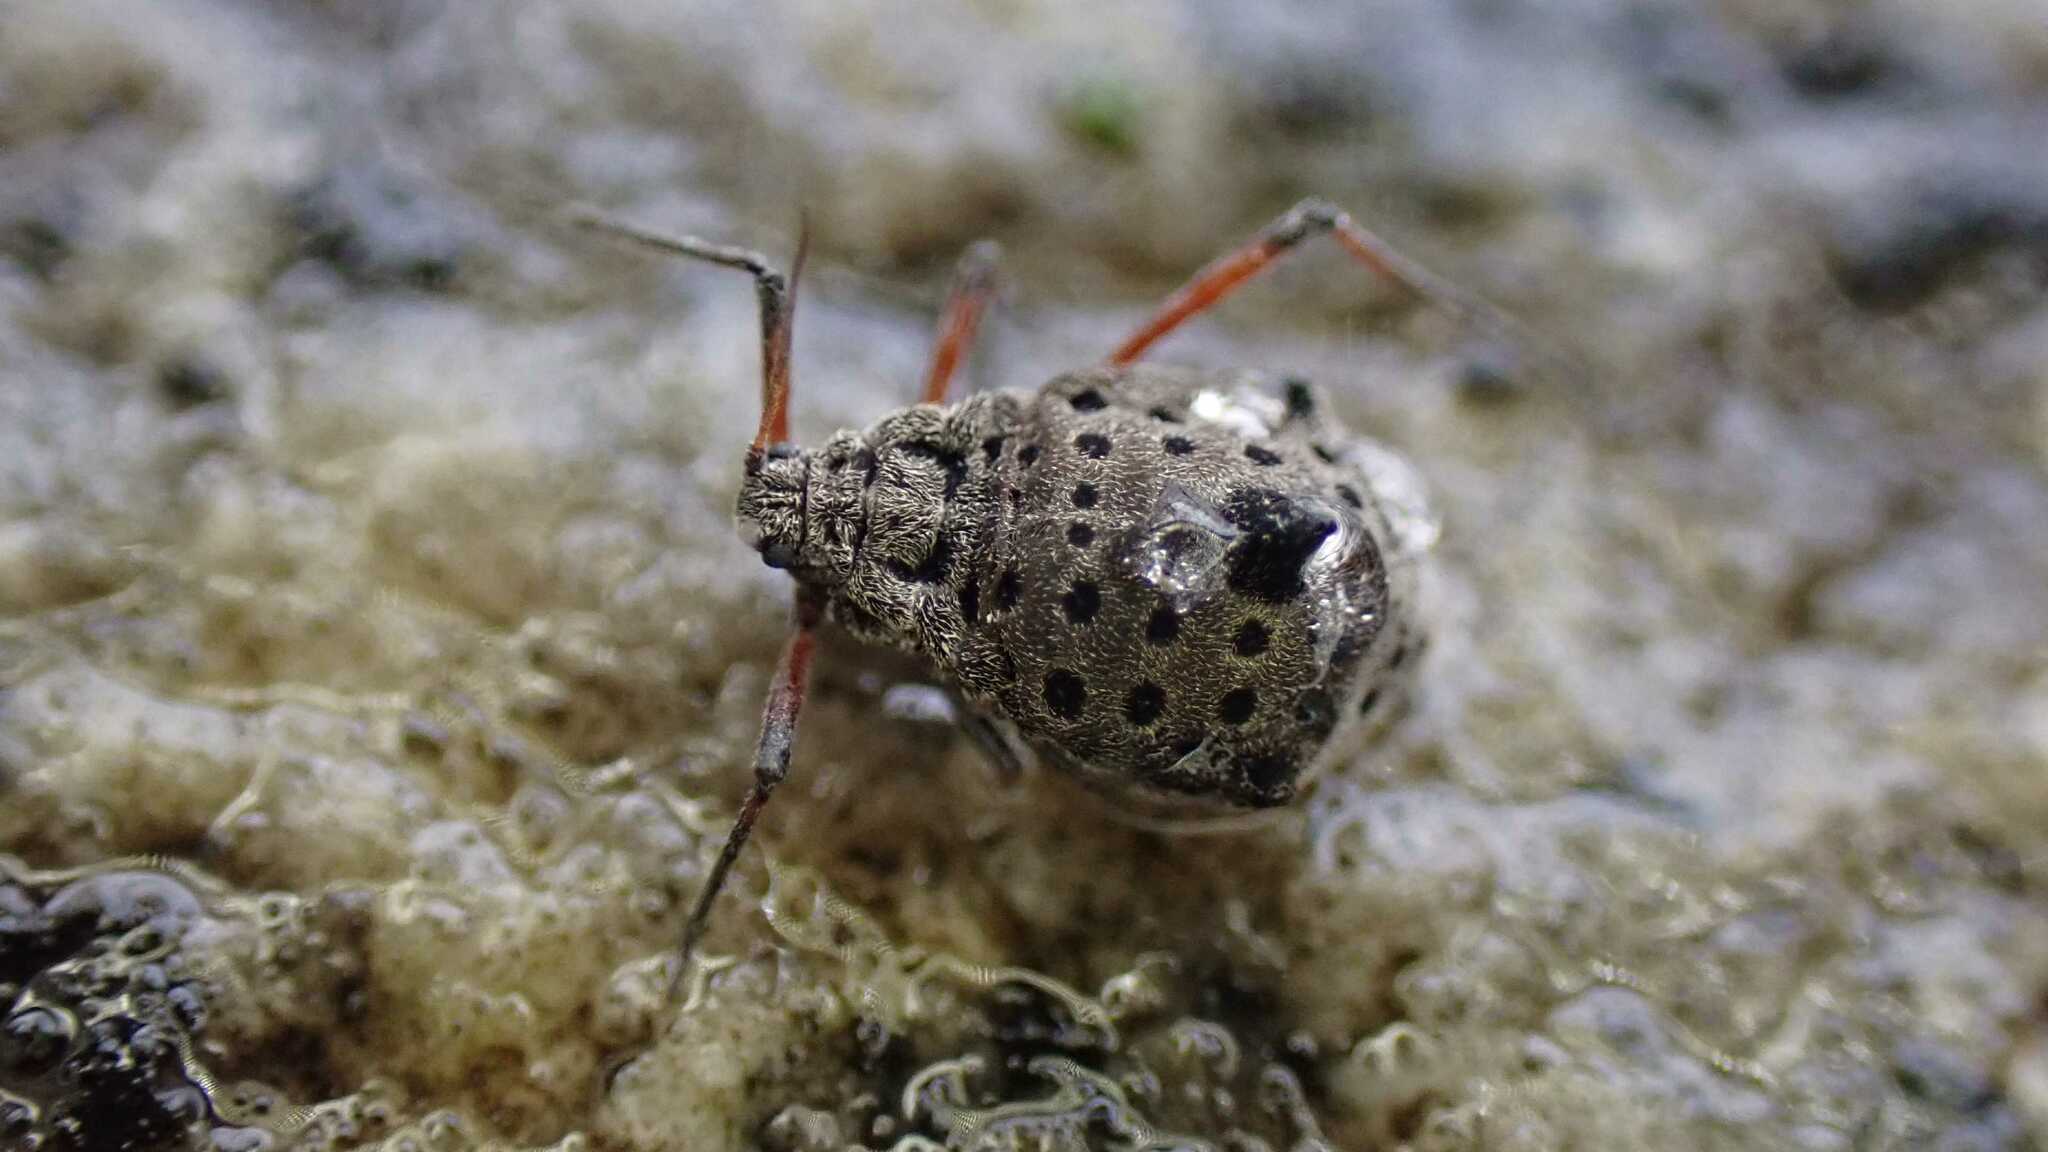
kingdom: Animalia
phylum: Arthropoda
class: Insecta
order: Hemiptera
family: Aphididae
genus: Tuberolachnus
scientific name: Tuberolachnus salignus
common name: Giant willow aphid
